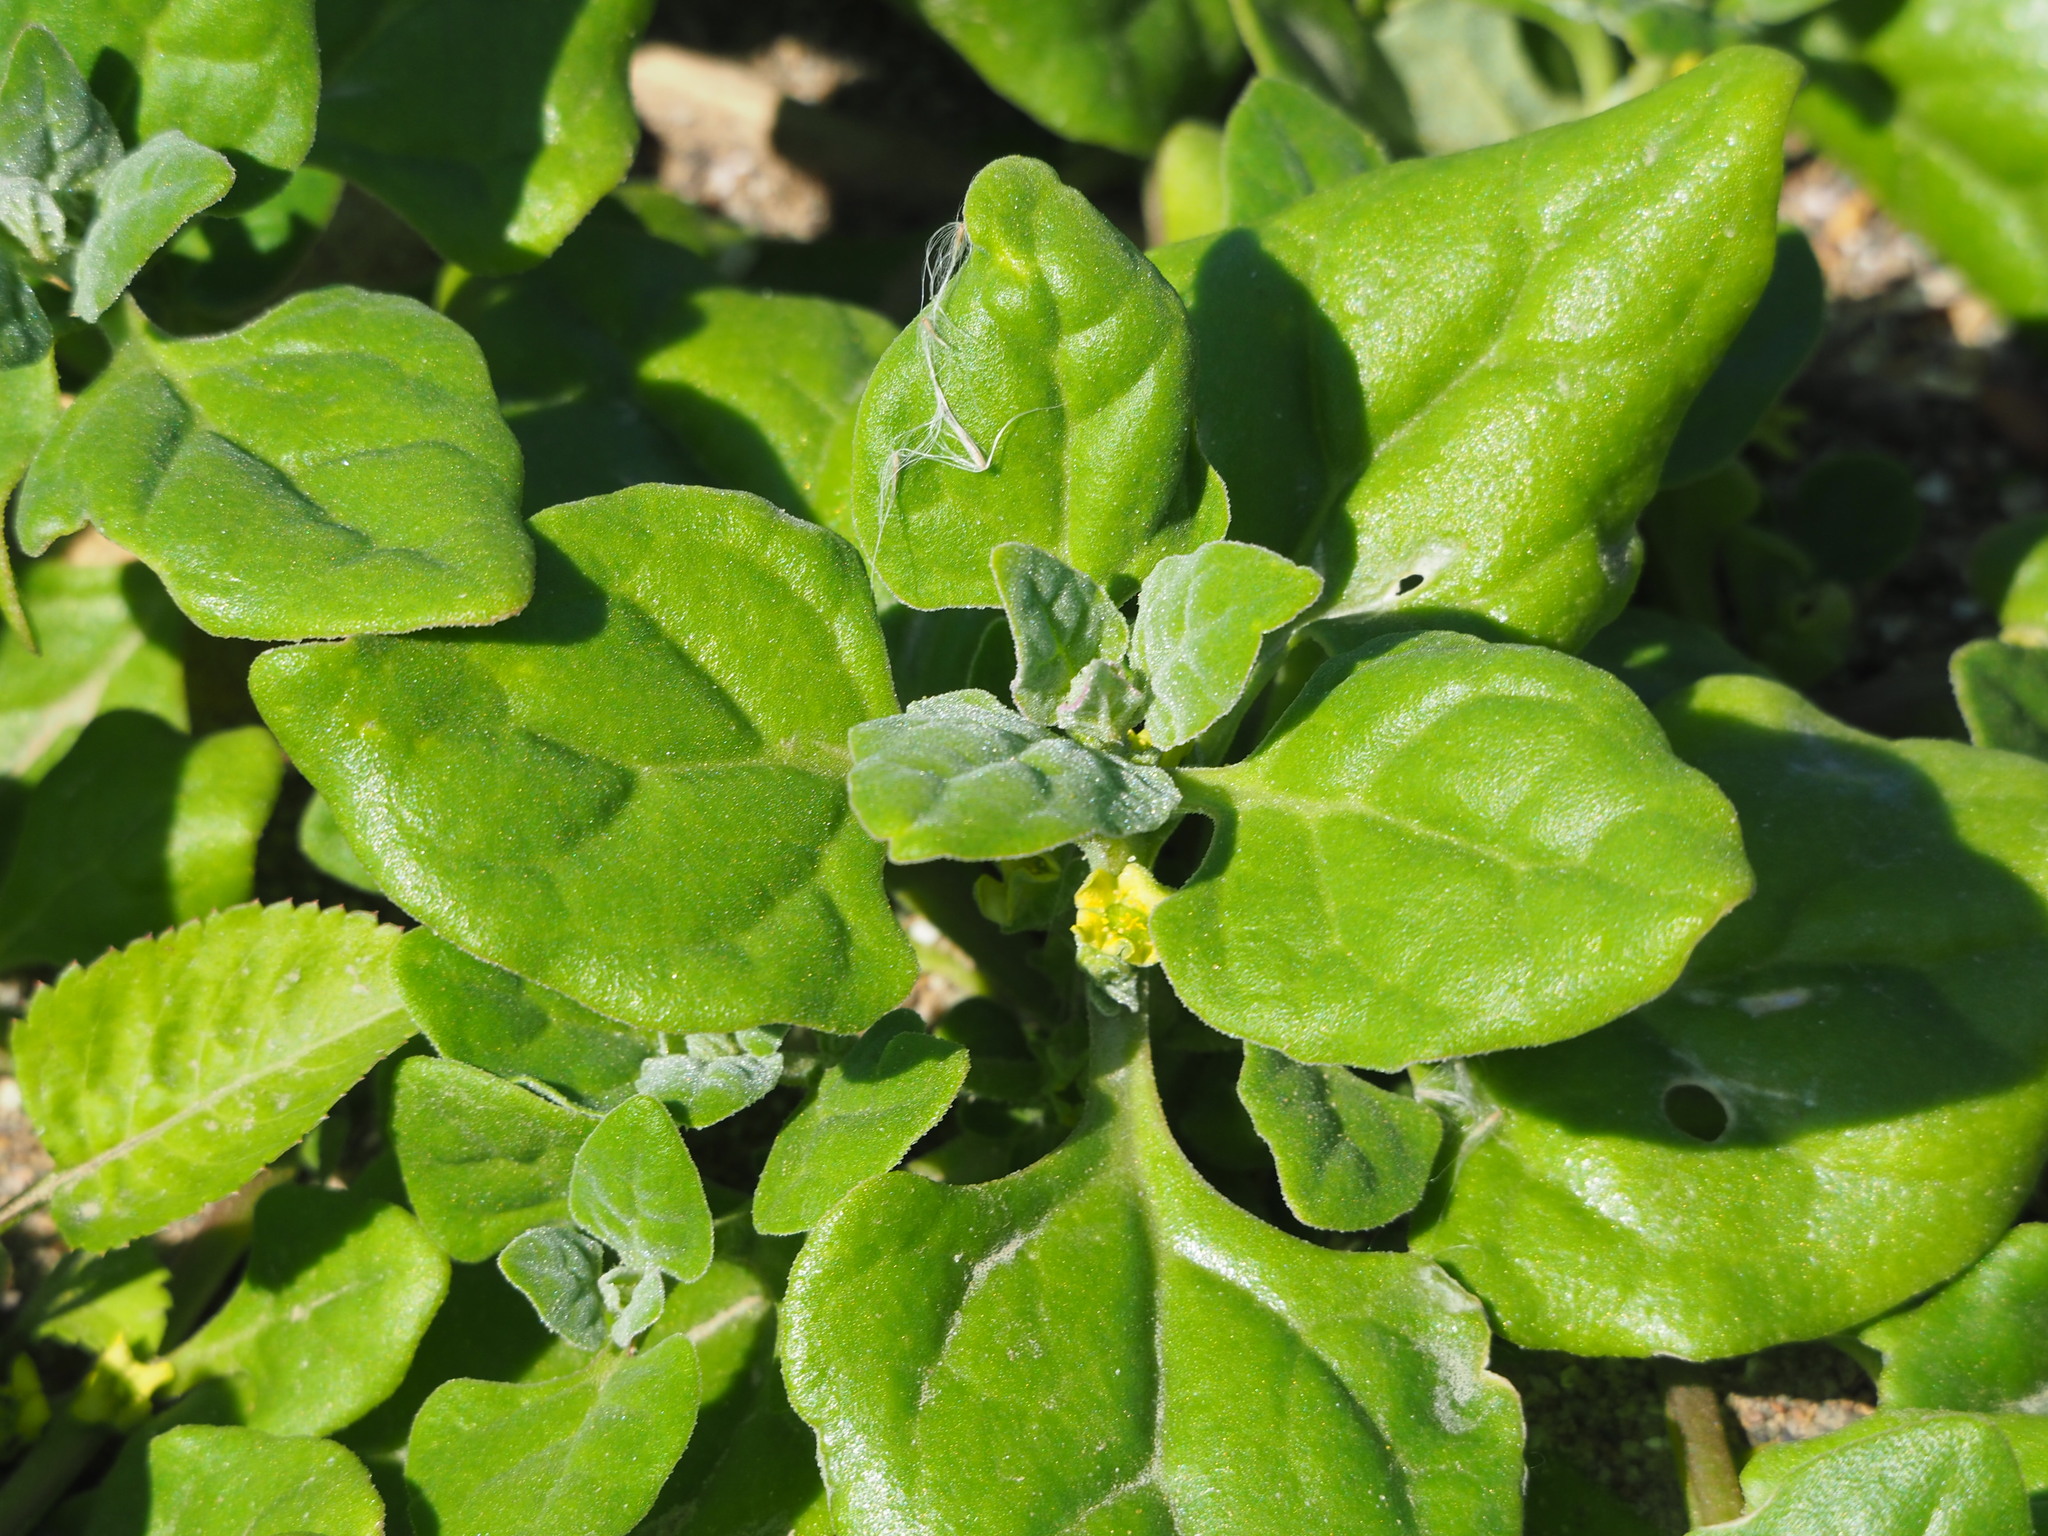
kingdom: Plantae
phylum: Tracheophyta
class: Magnoliopsida
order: Caryophyllales
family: Aizoaceae
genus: Tetragonia
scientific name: Tetragonia tetragonoides
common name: New zealand-spinach
